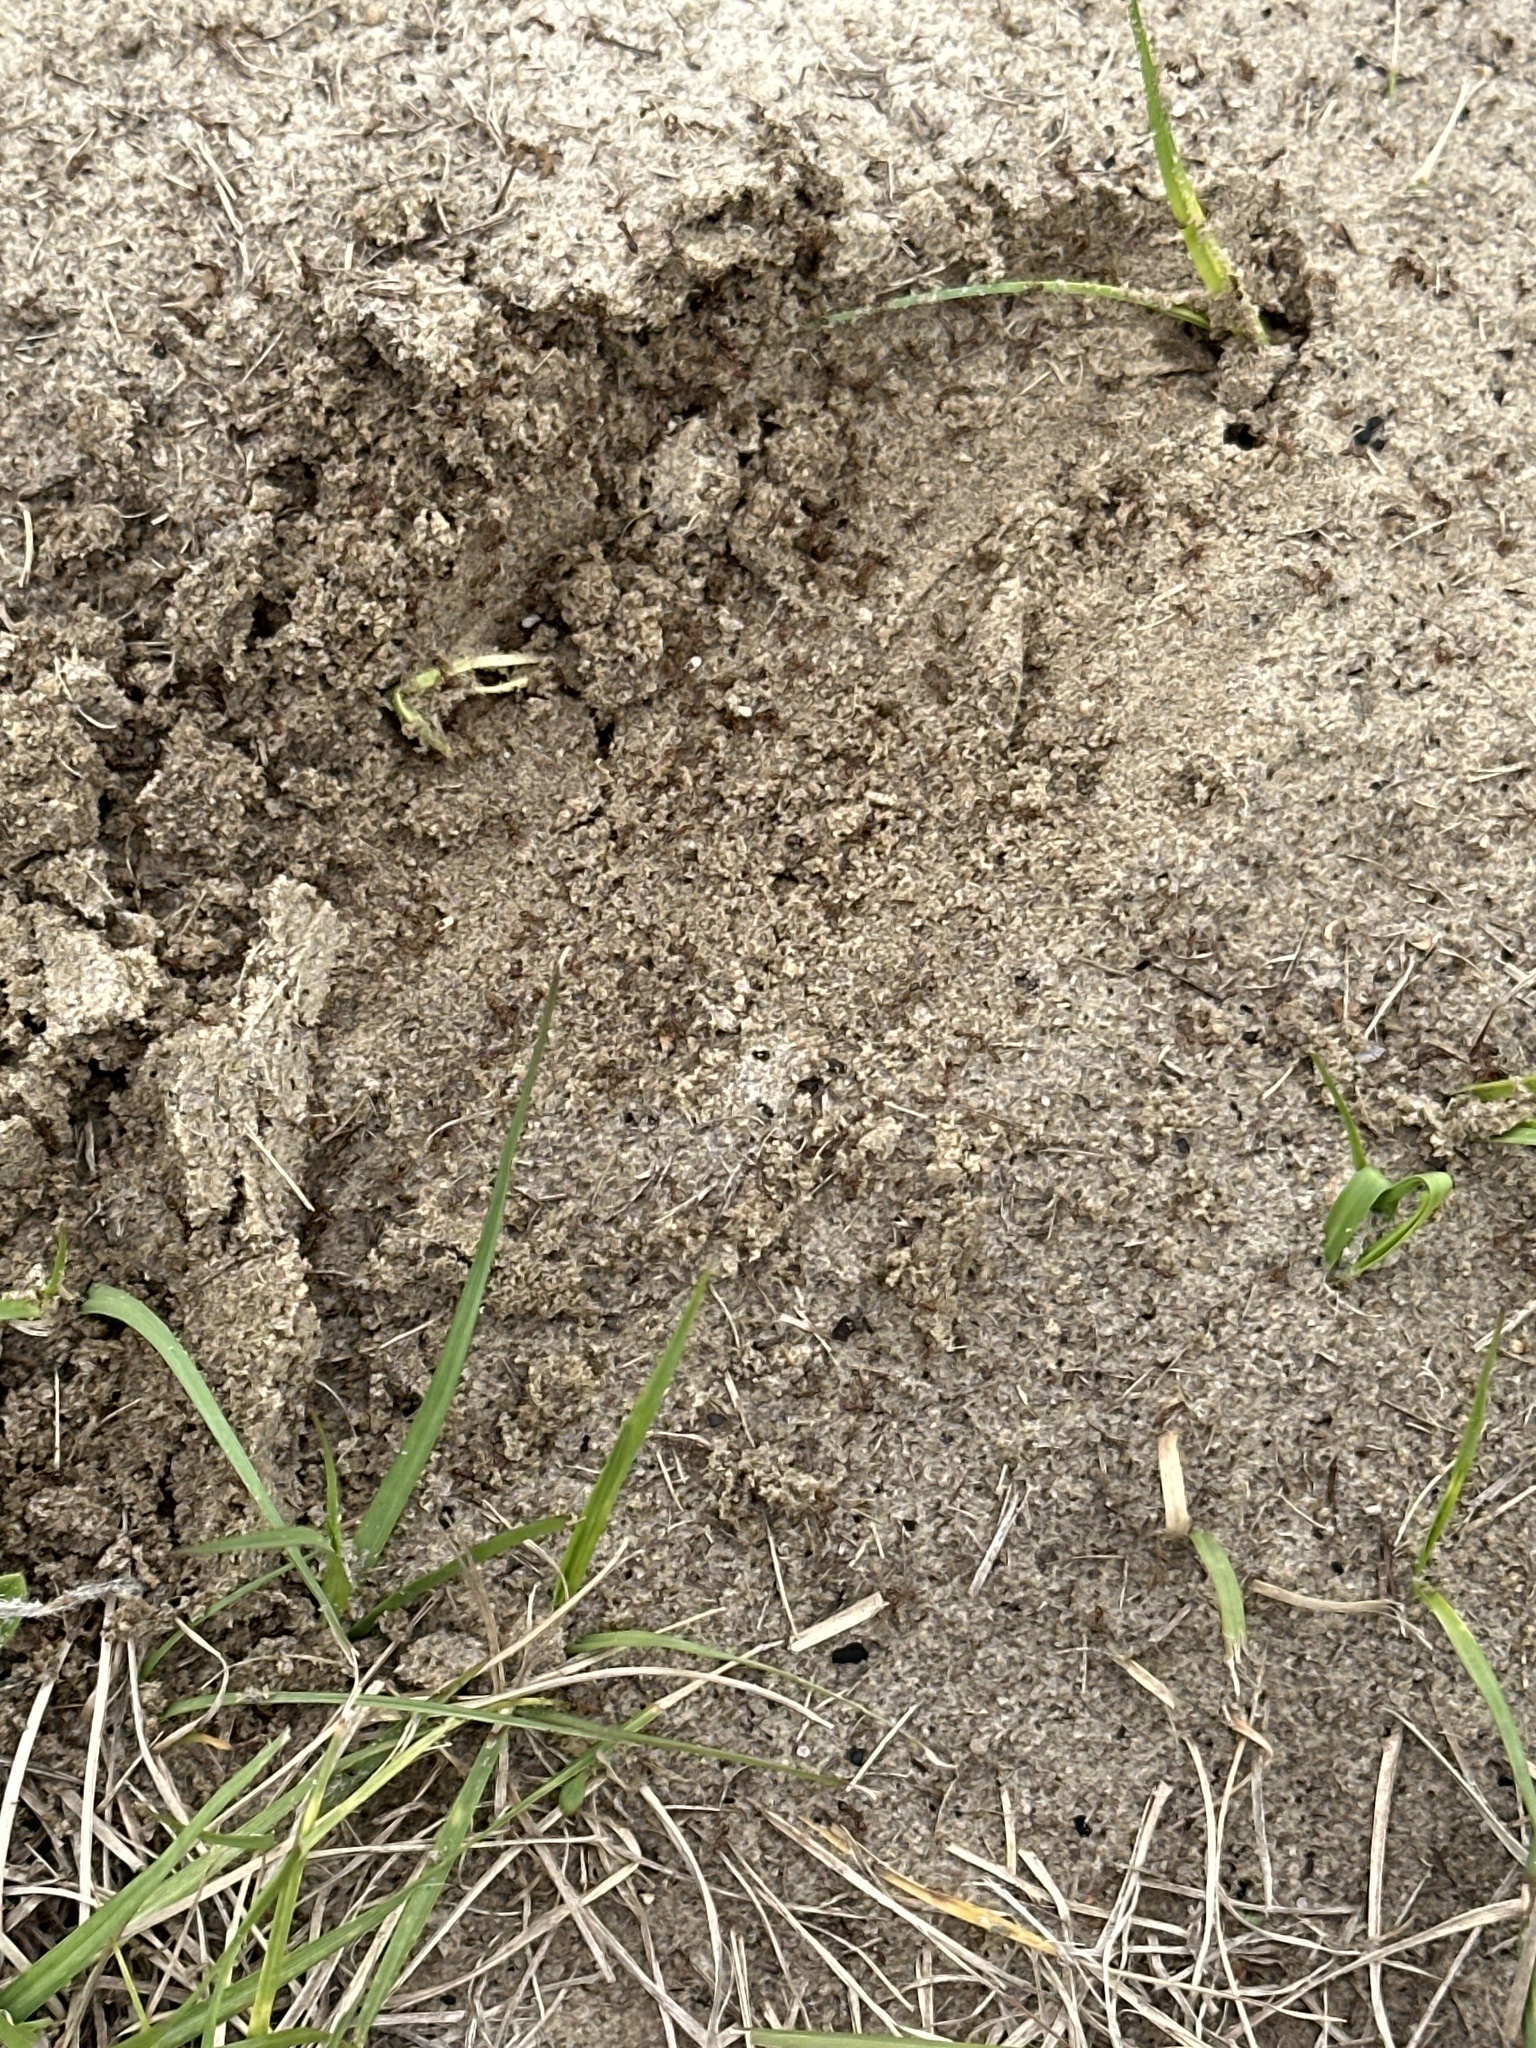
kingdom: Animalia
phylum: Arthropoda
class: Insecta
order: Hymenoptera
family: Formicidae
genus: Solenopsis
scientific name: Solenopsis invicta
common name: Red imported fire ant
